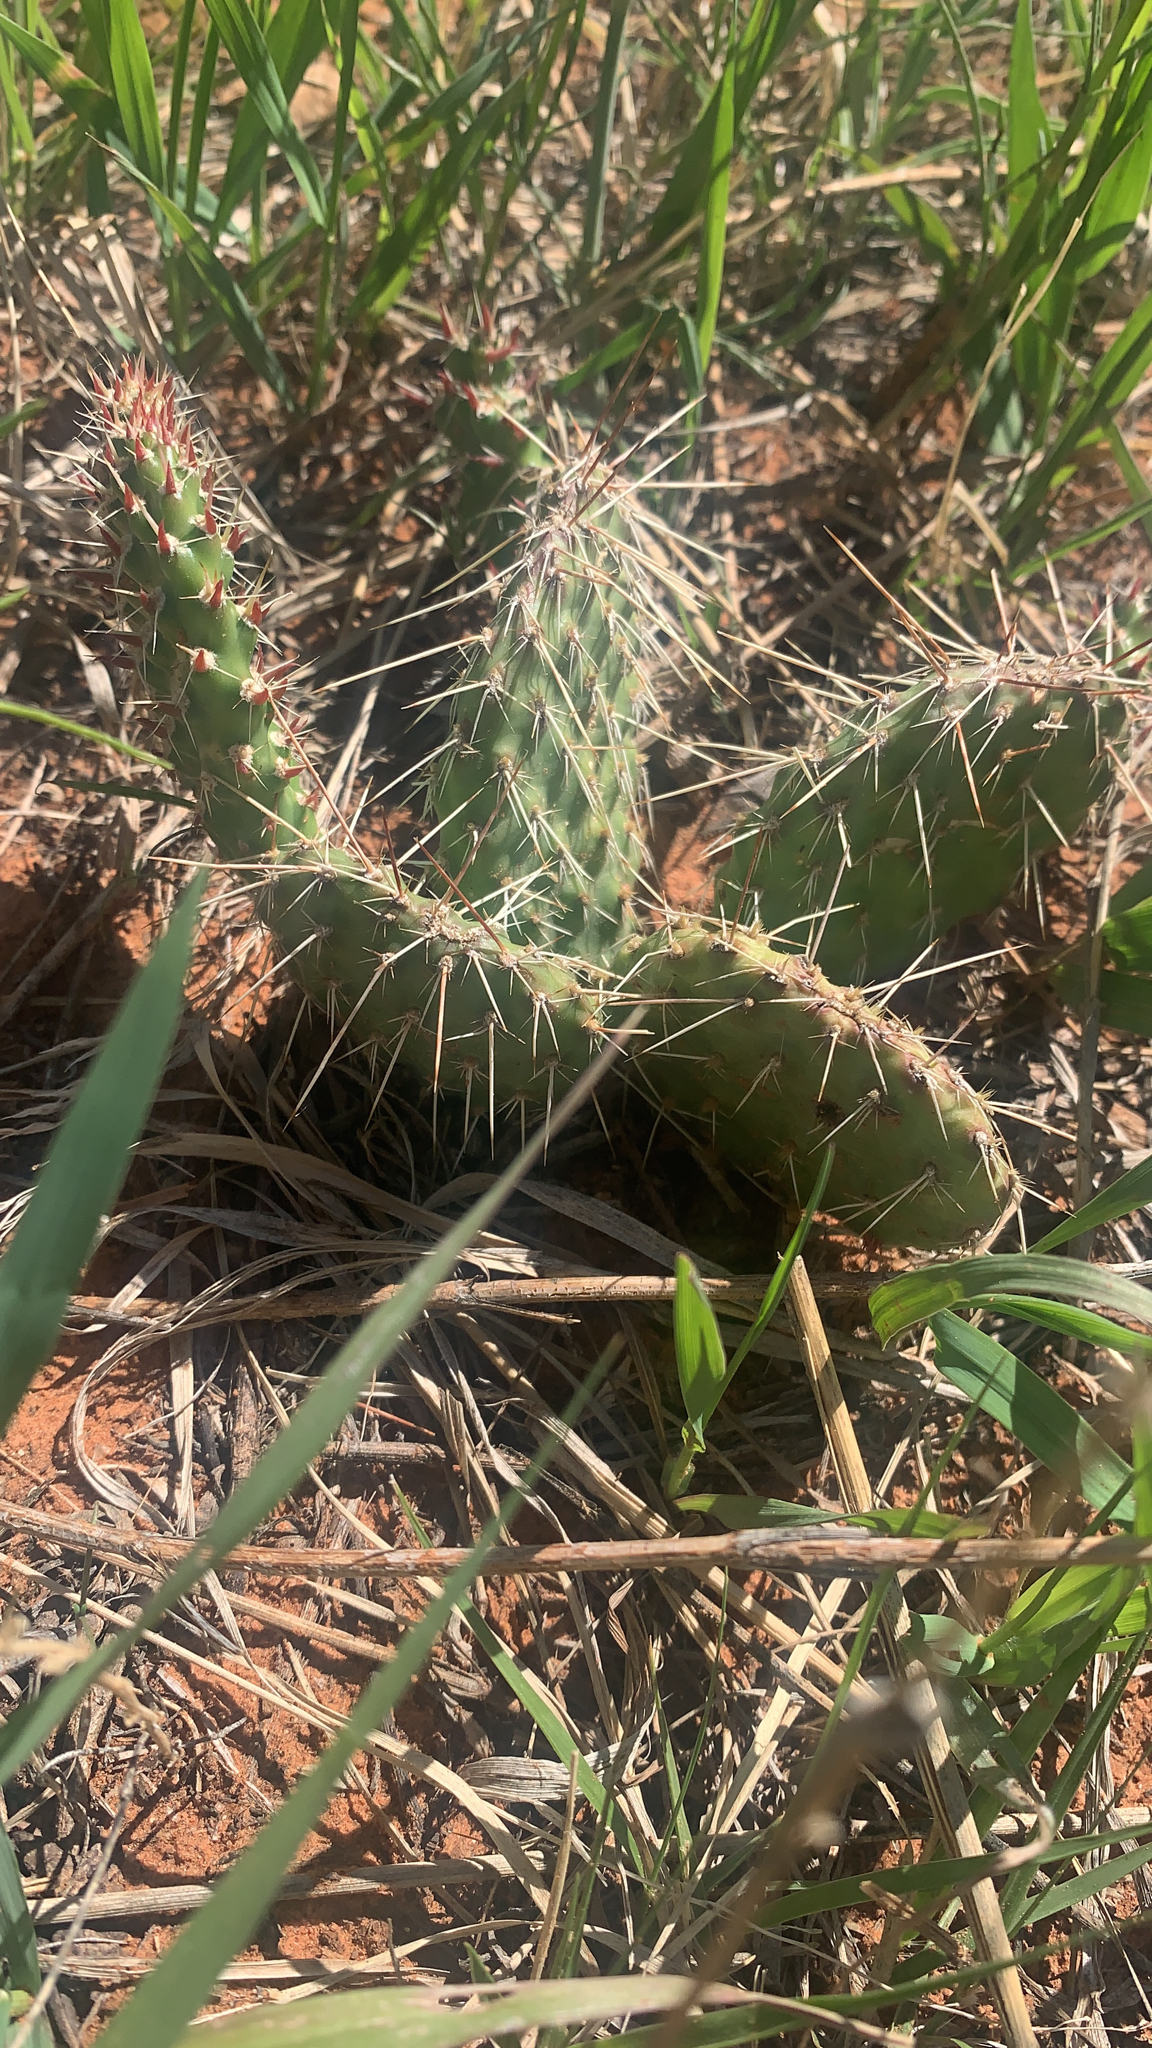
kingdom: Plantae
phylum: Tracheophyta
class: Magnoliopsida
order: Caryophyllales
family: Cactaceae
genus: Opuntia
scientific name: Opuntia polyacantha
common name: Plains prickly-pear
